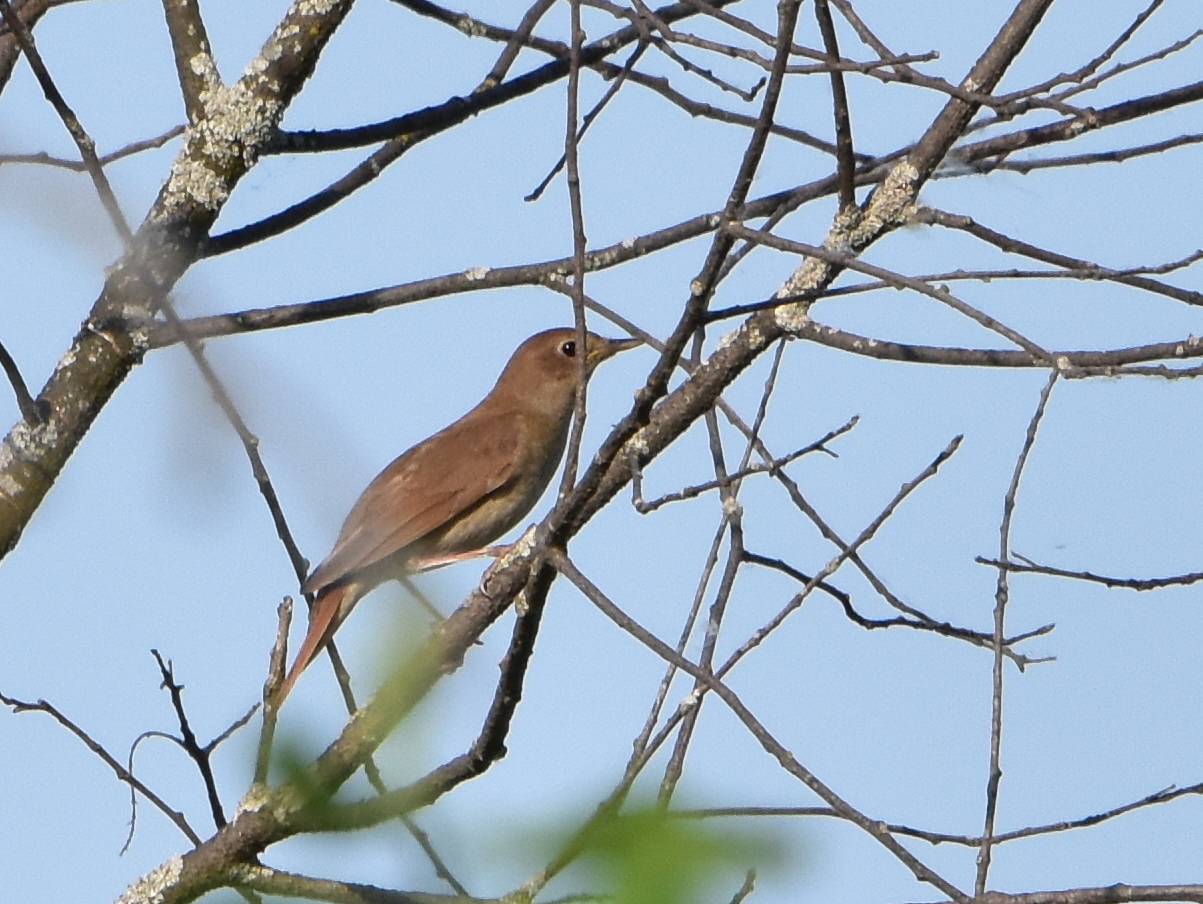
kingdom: Animalia
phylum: Chordata
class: Aves
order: Passeriformes
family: Muscicapidae
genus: Luscinia
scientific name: Luscinia luscinia
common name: Thrush nightingale
